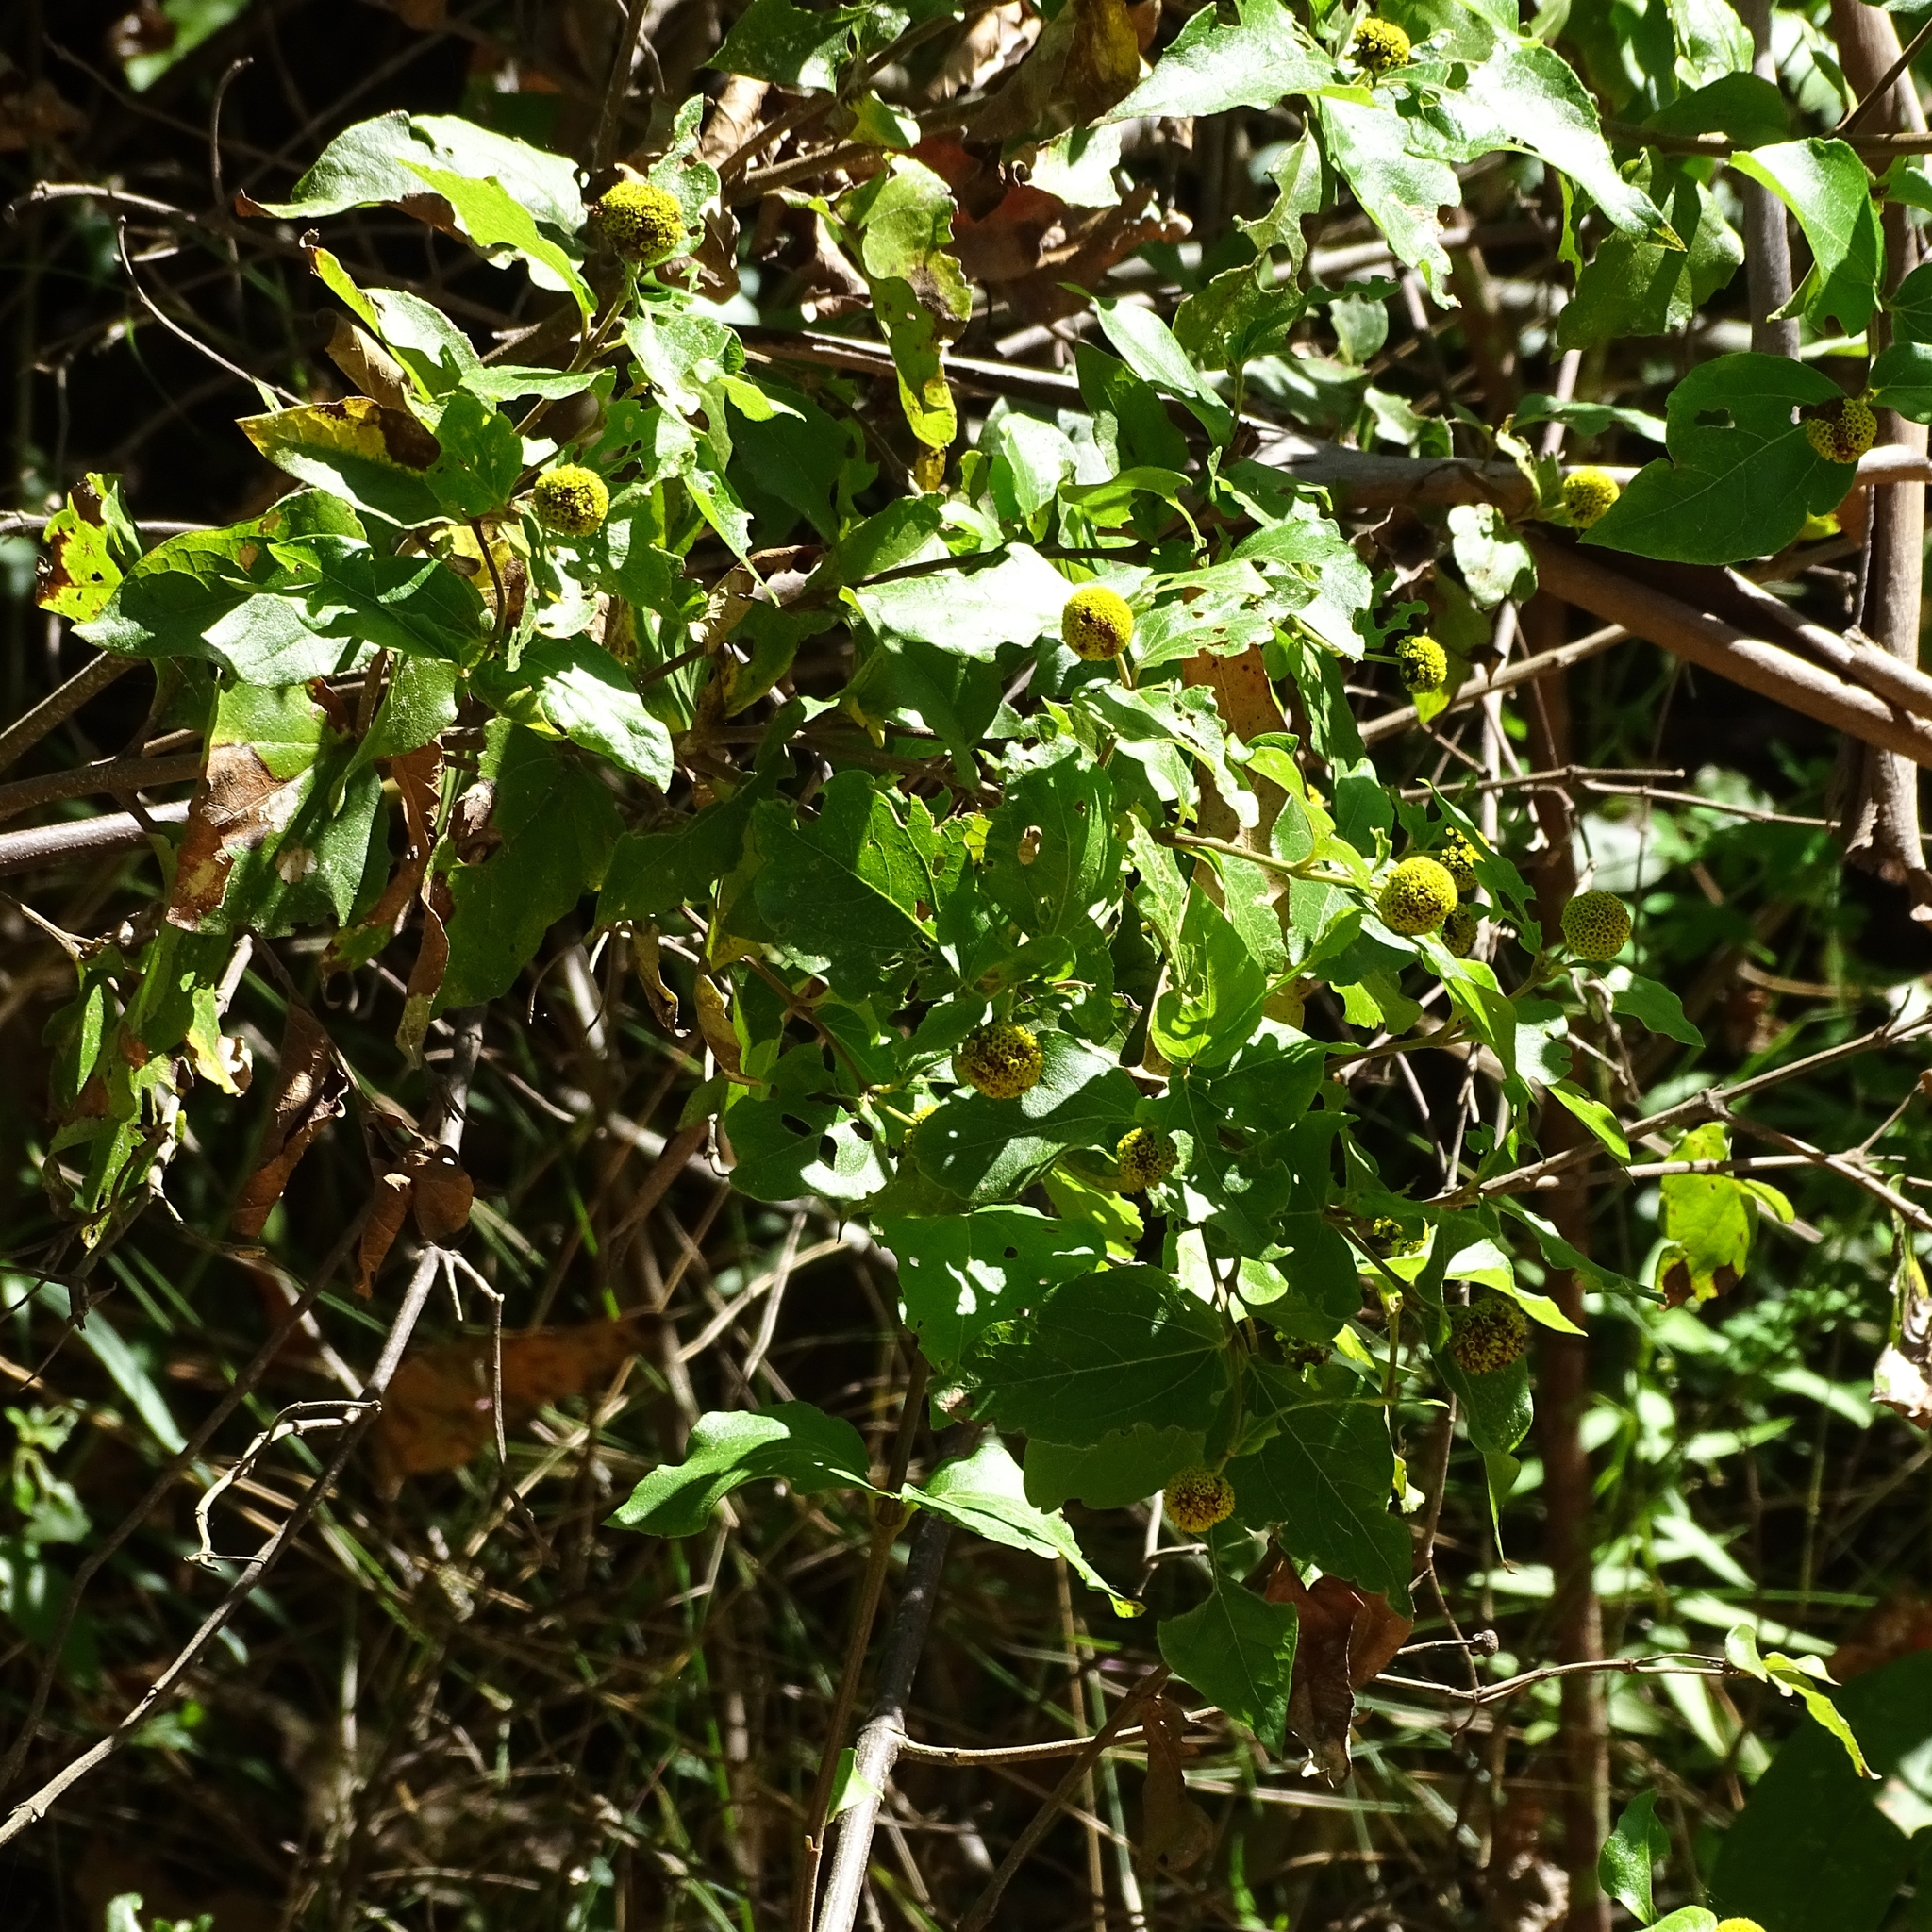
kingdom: Plantae
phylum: Tracheophyta
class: Magnoliopsida
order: Asterales
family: Asteraceae
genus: Podanthus
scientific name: Podanthus ovatifolius
